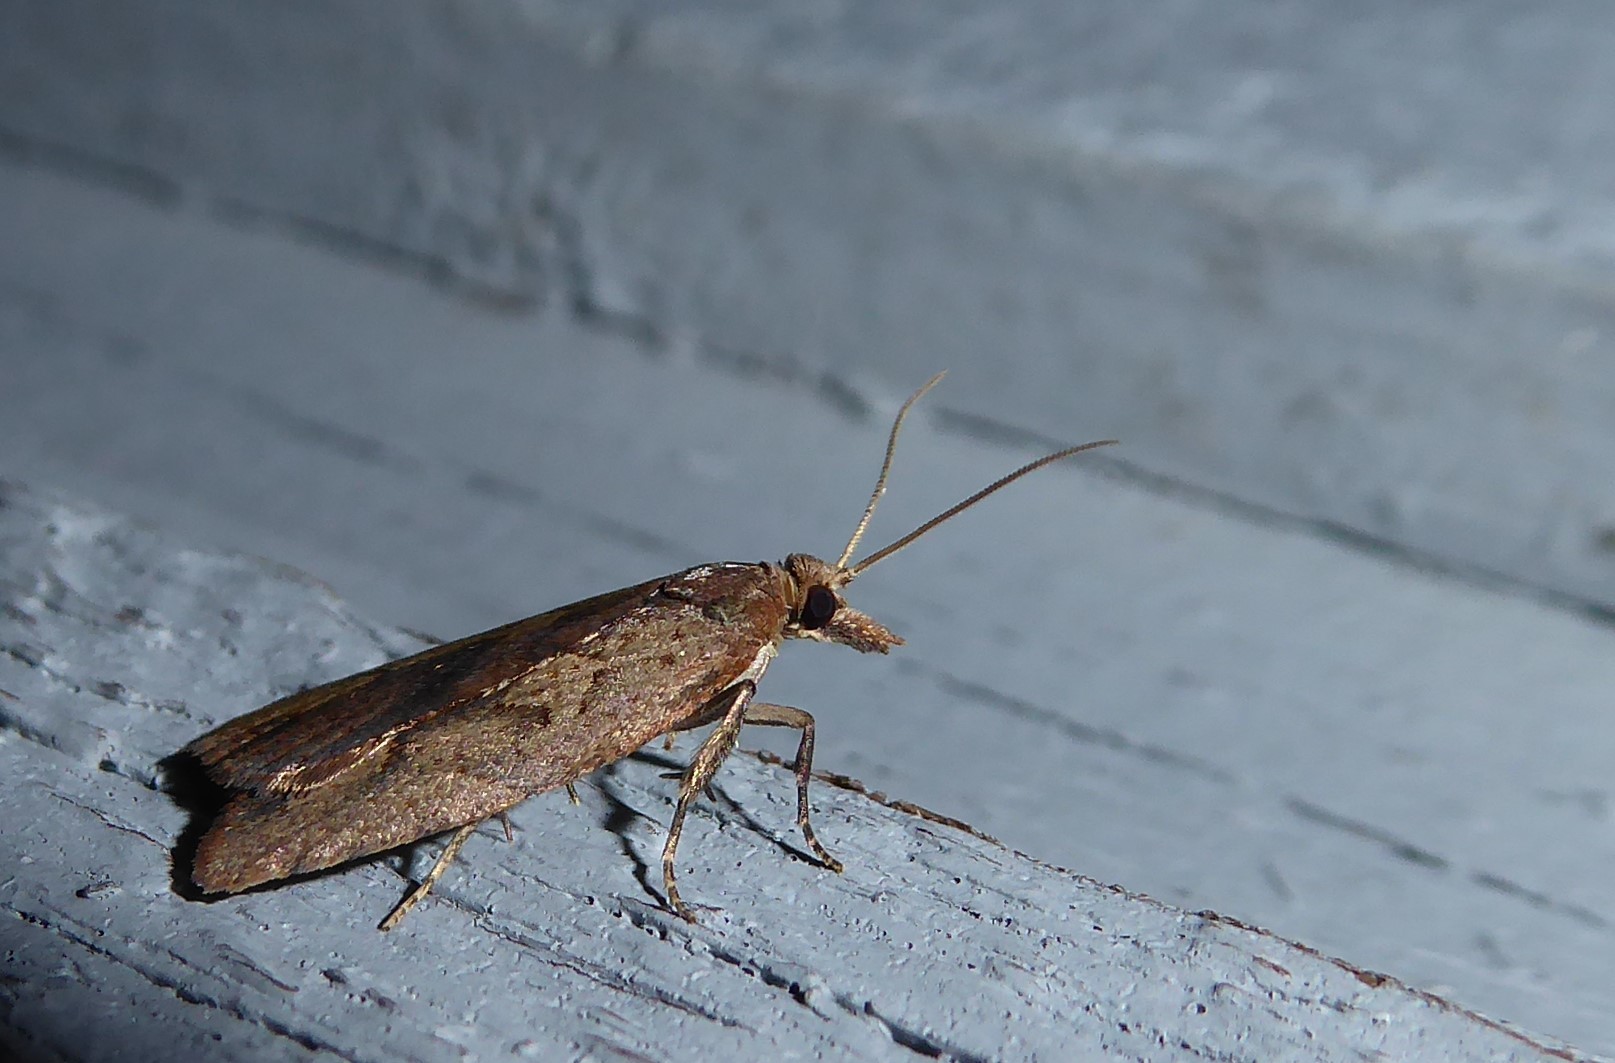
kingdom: Animalia
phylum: Arthropoda
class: Insecta
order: Lepidoptera
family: Tortricidae
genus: Planotortrix
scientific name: Planotortrix notophaea
